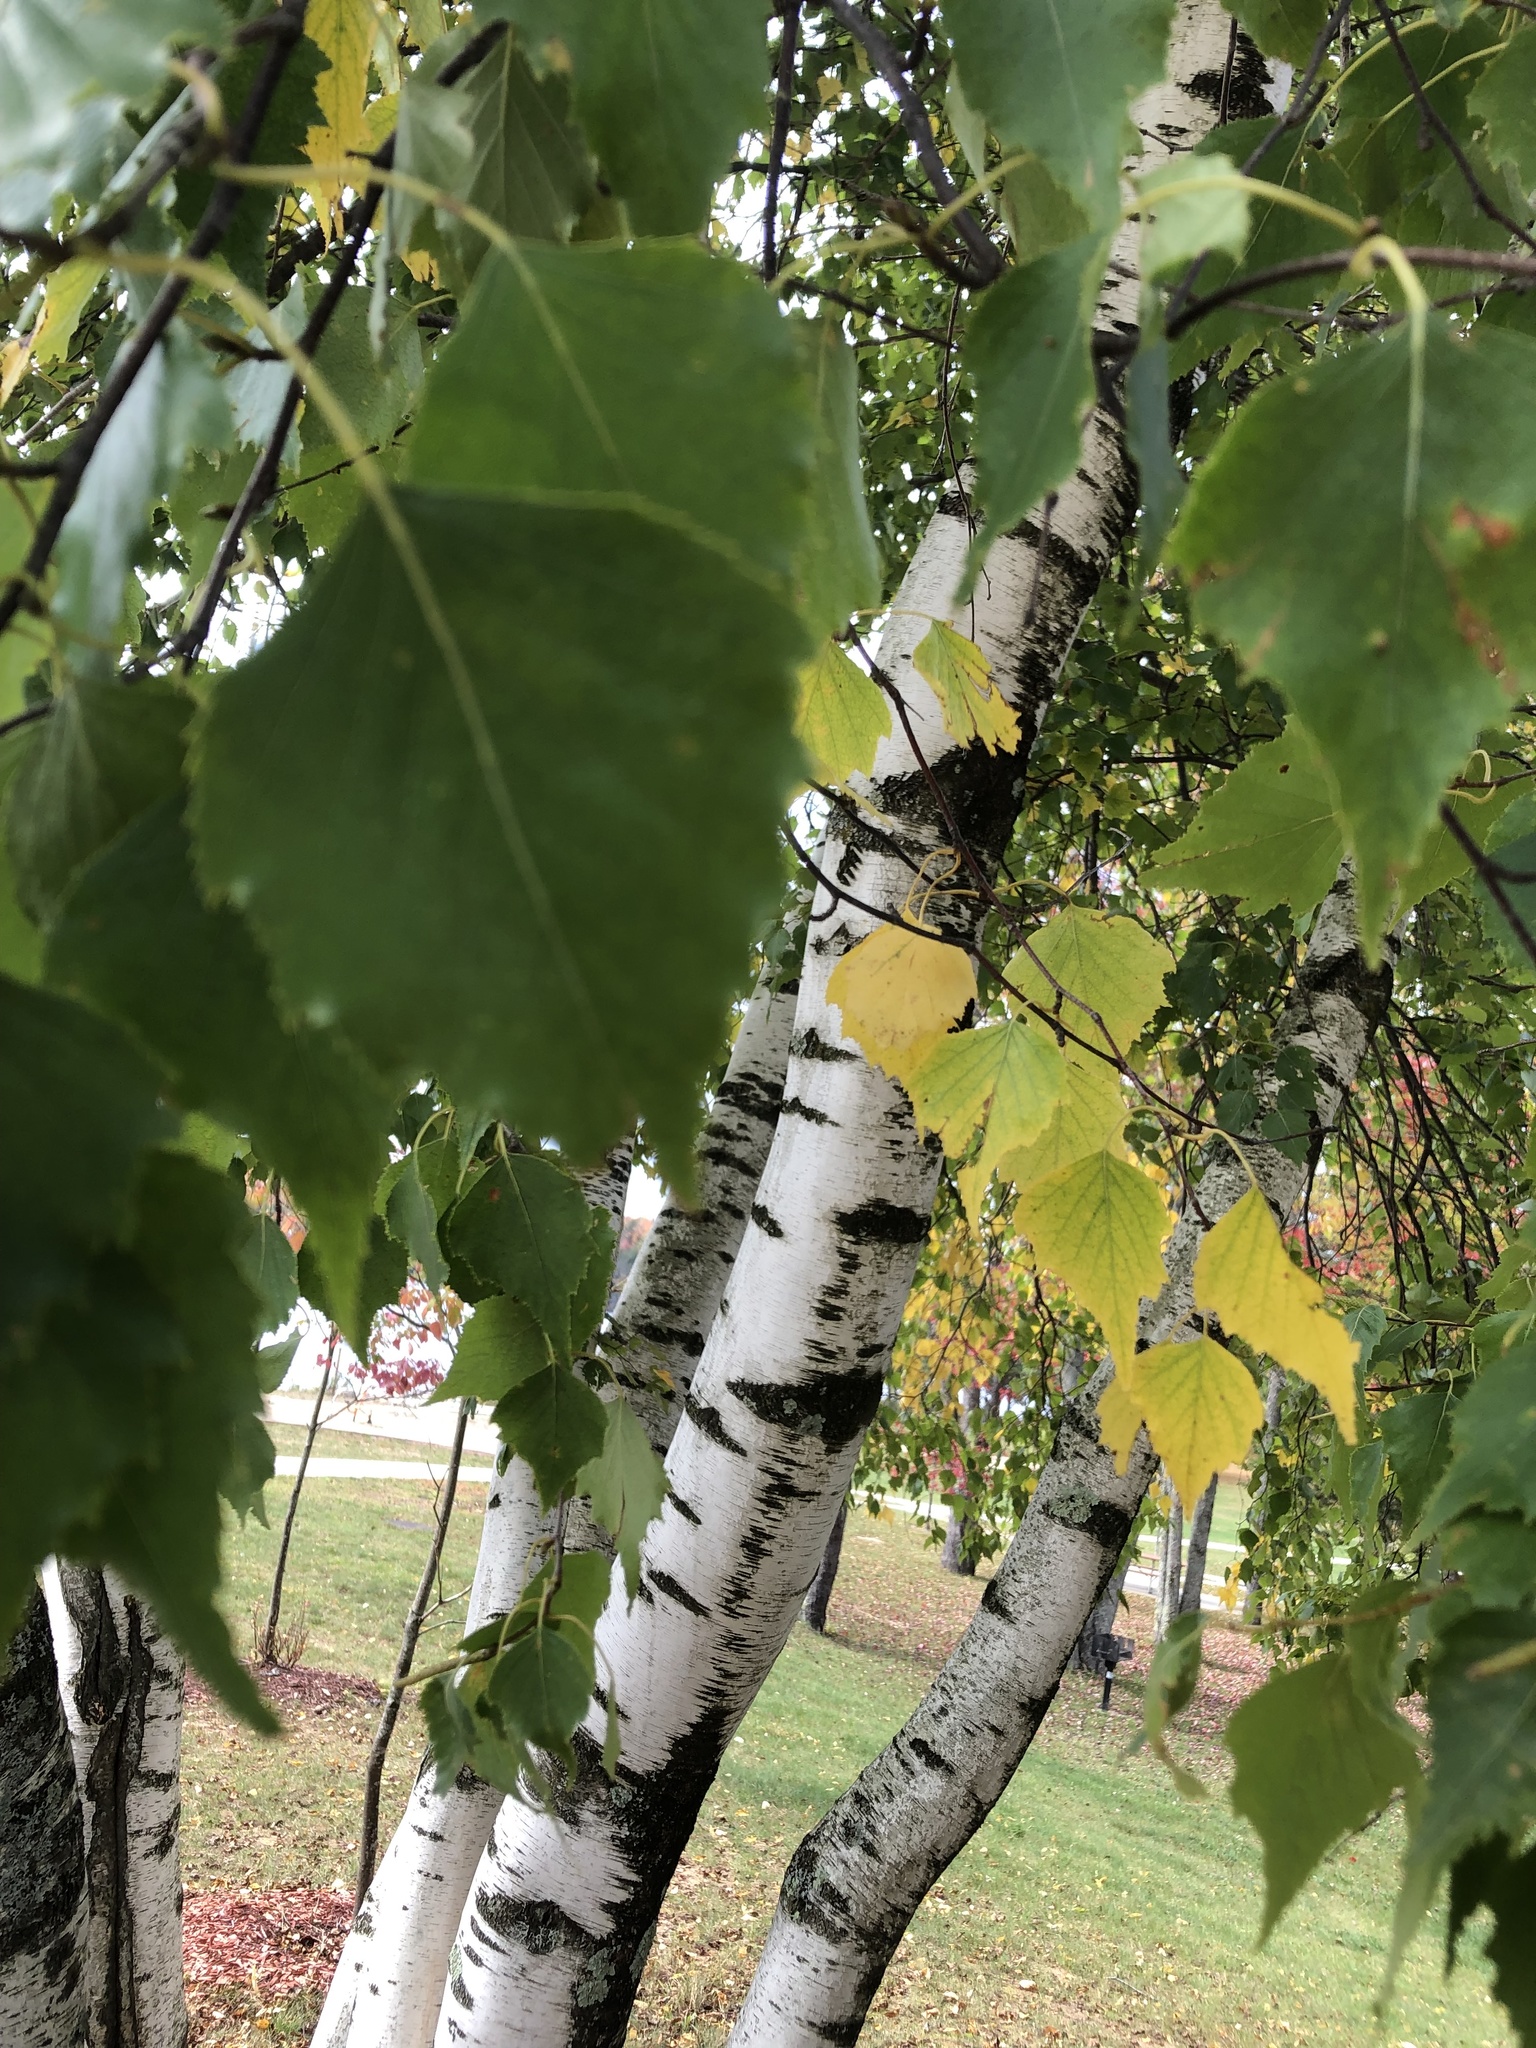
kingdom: Plantae
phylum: Tracheophyta
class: Magnoliopsida
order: Fagales
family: Betulaceae
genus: Betula
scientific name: Betula populifolia
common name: Fire birch
